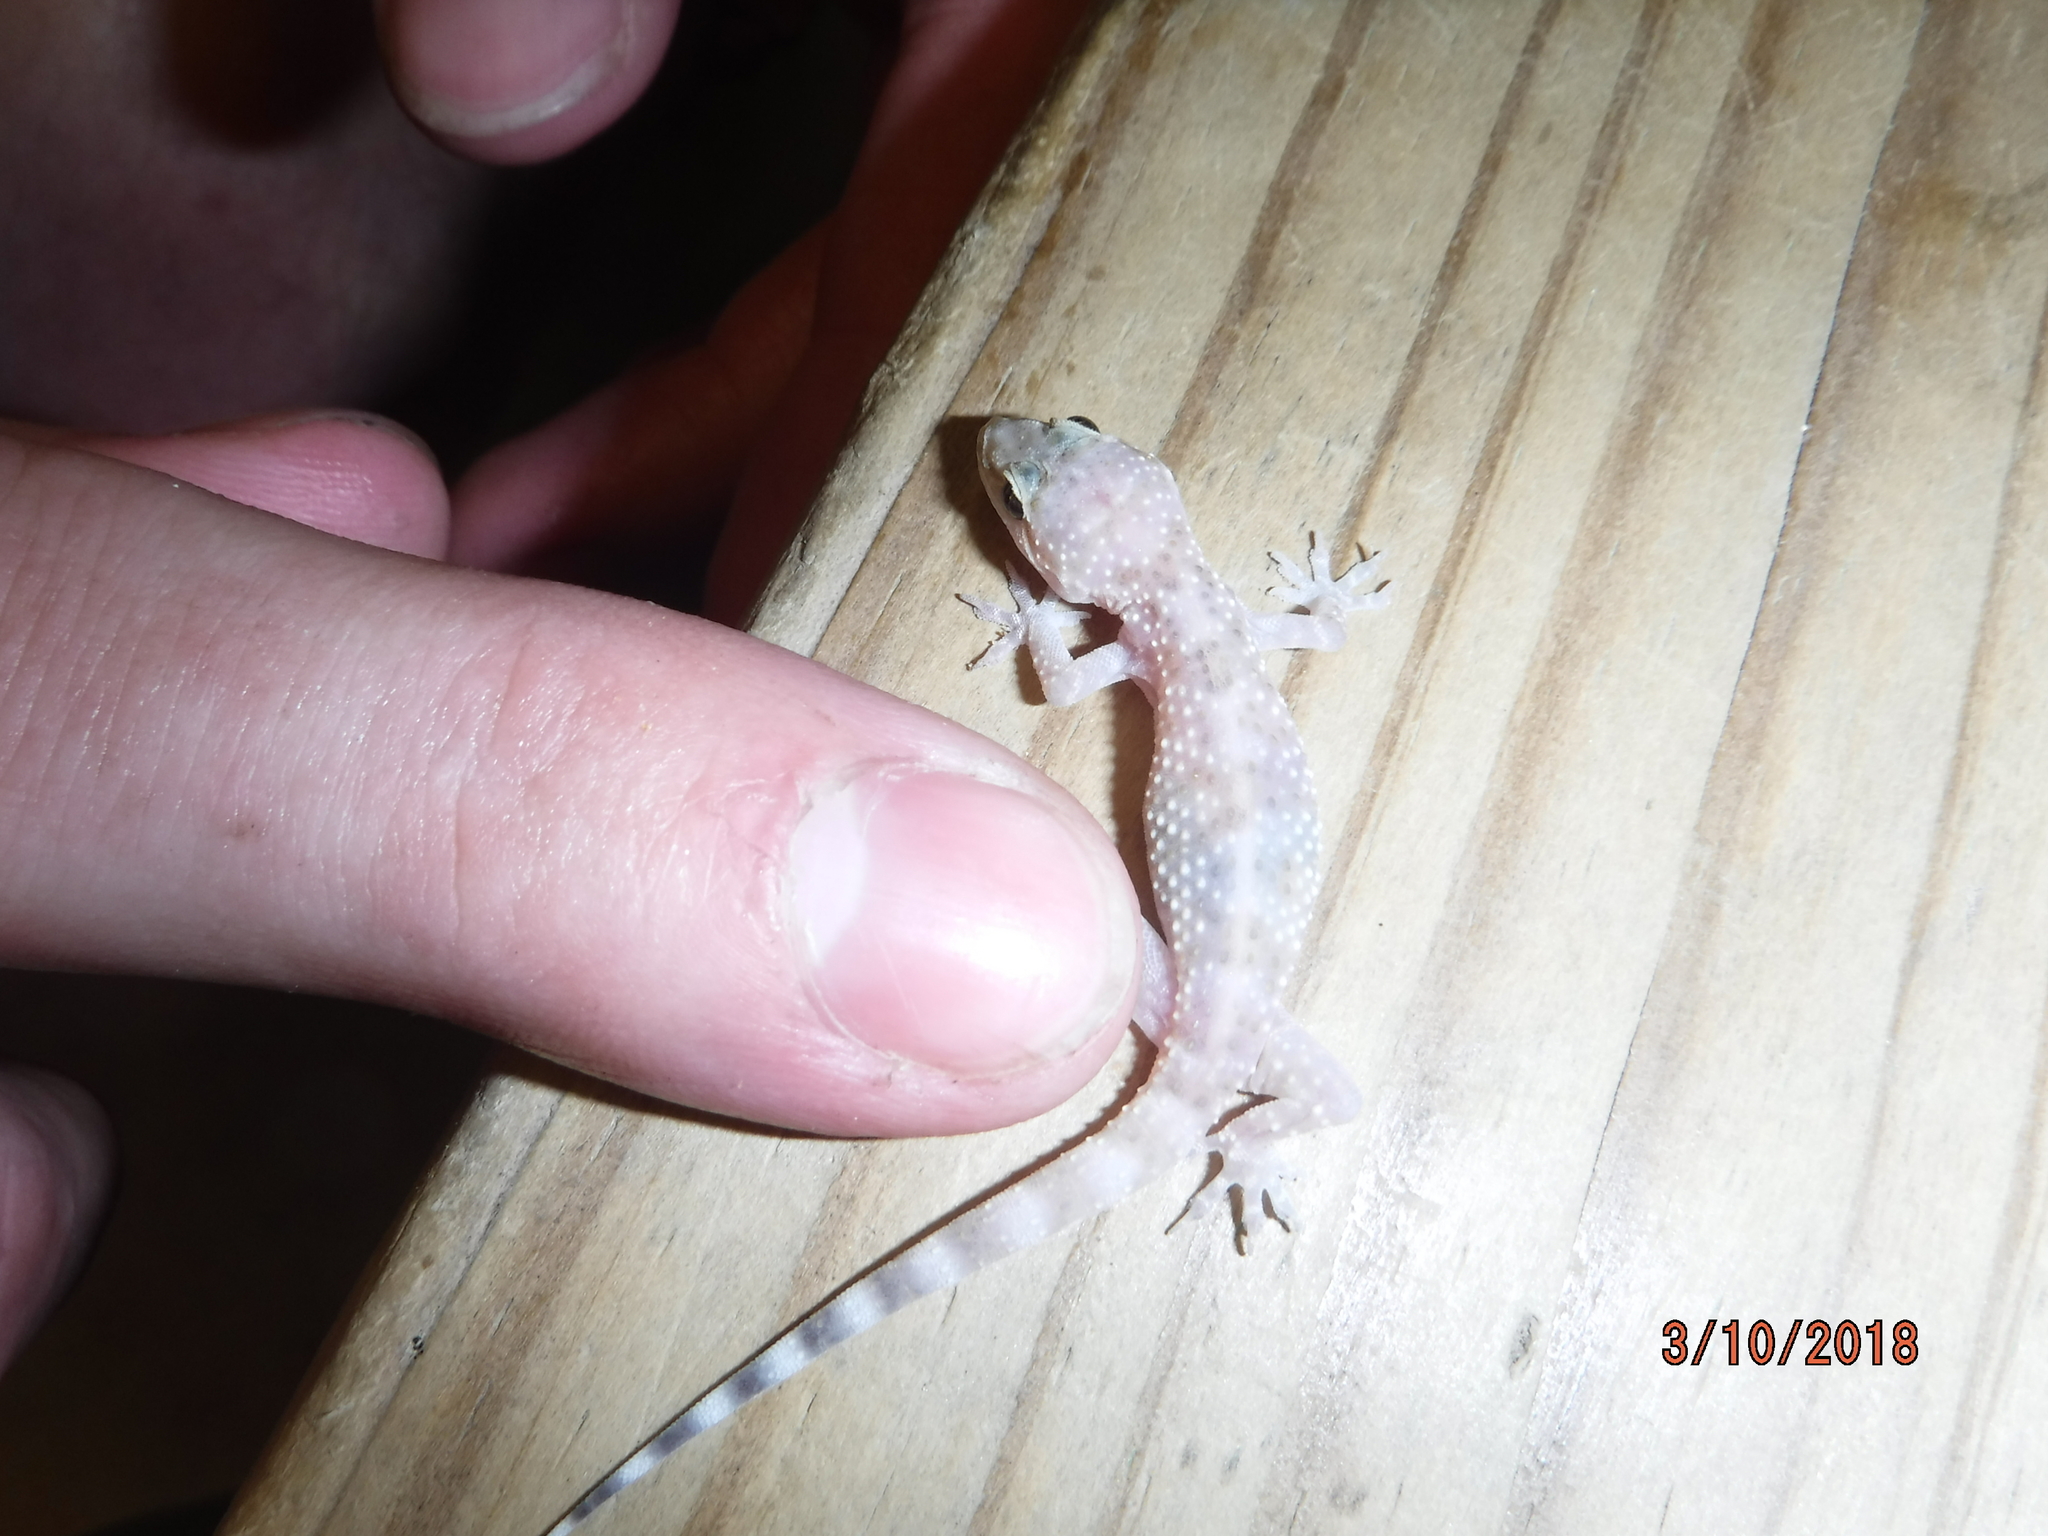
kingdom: Animalia
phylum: Chordata
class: Squamata
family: Gekkonidae
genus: Hemidactylus
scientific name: Hemidactylus turcicus
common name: Turkish gecko
